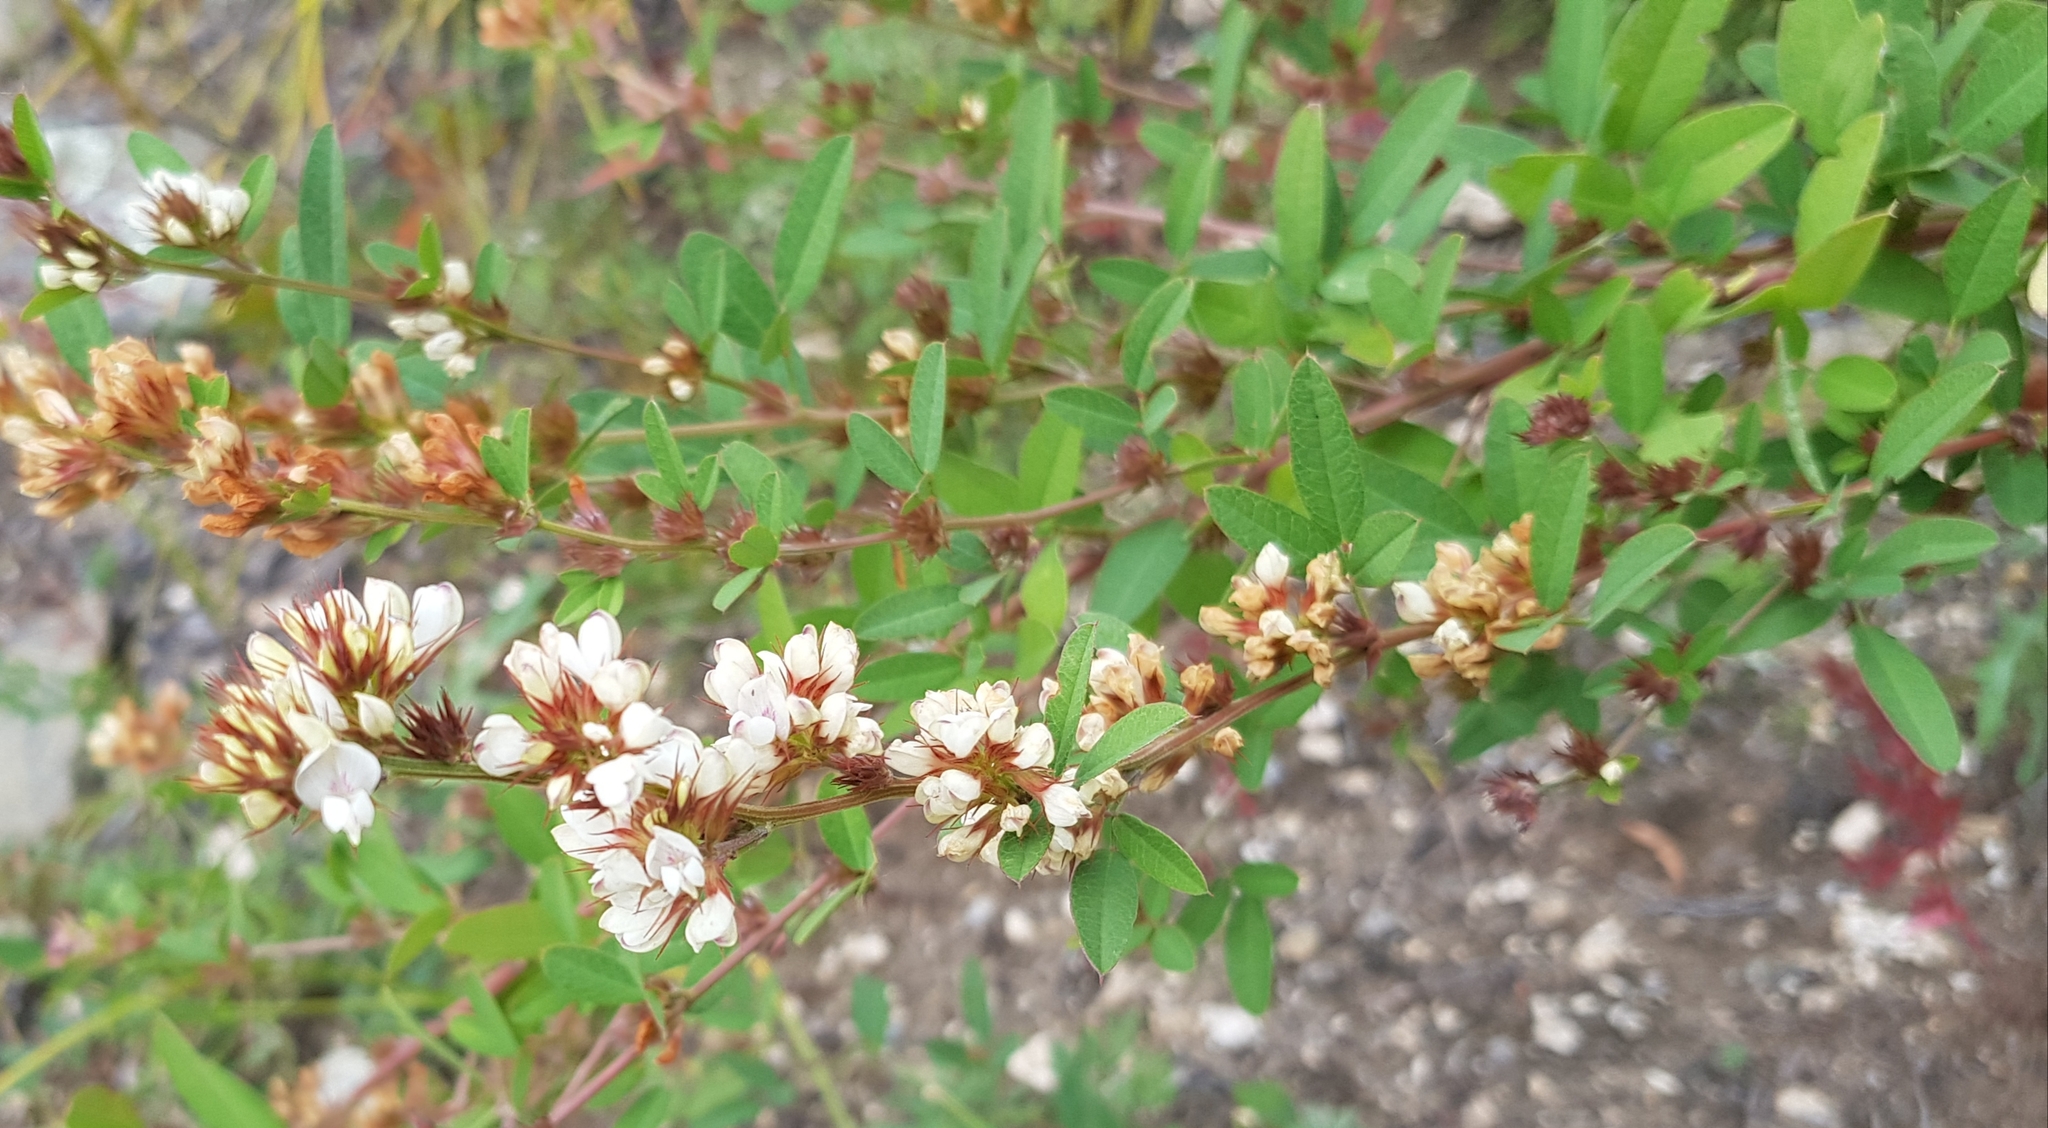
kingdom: Plantae
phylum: Tracheophyta
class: Magnoliopsida
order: Fabales
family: Fabaceae
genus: Lespedeza
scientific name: Lespedeza juncea
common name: Siberian lespedeza
